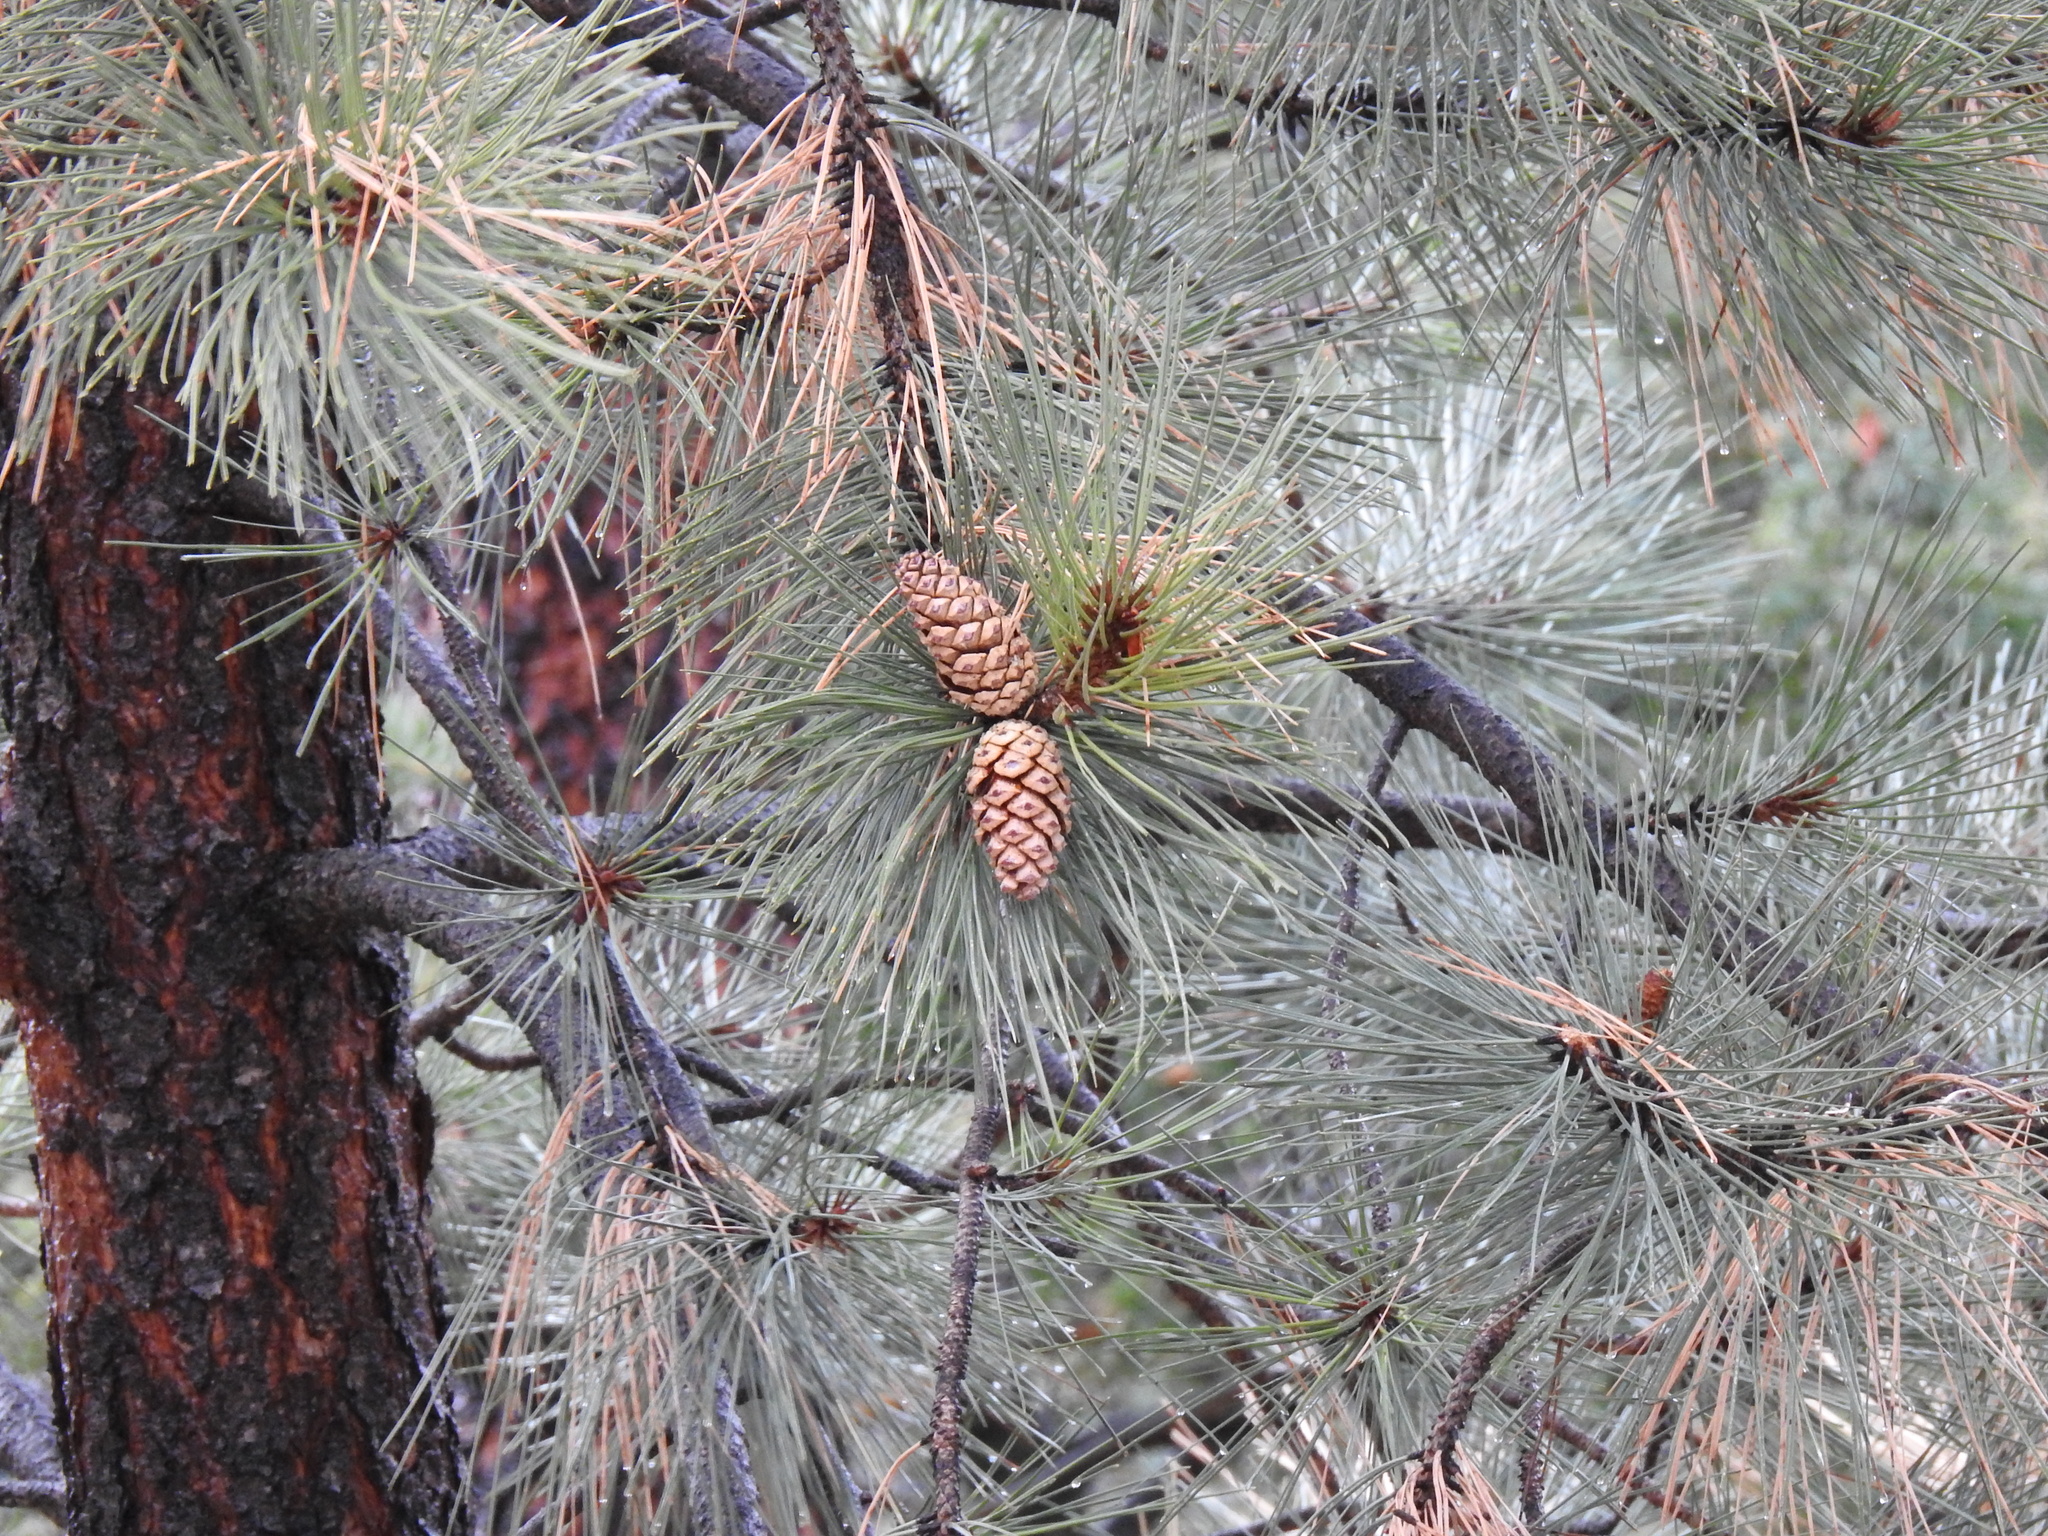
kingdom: Plantae
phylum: Tracheophyta
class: Pinopsida
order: Pinales
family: Pinaceae
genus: Pinus
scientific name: Pinus ponderosa
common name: Western yellow-pine
